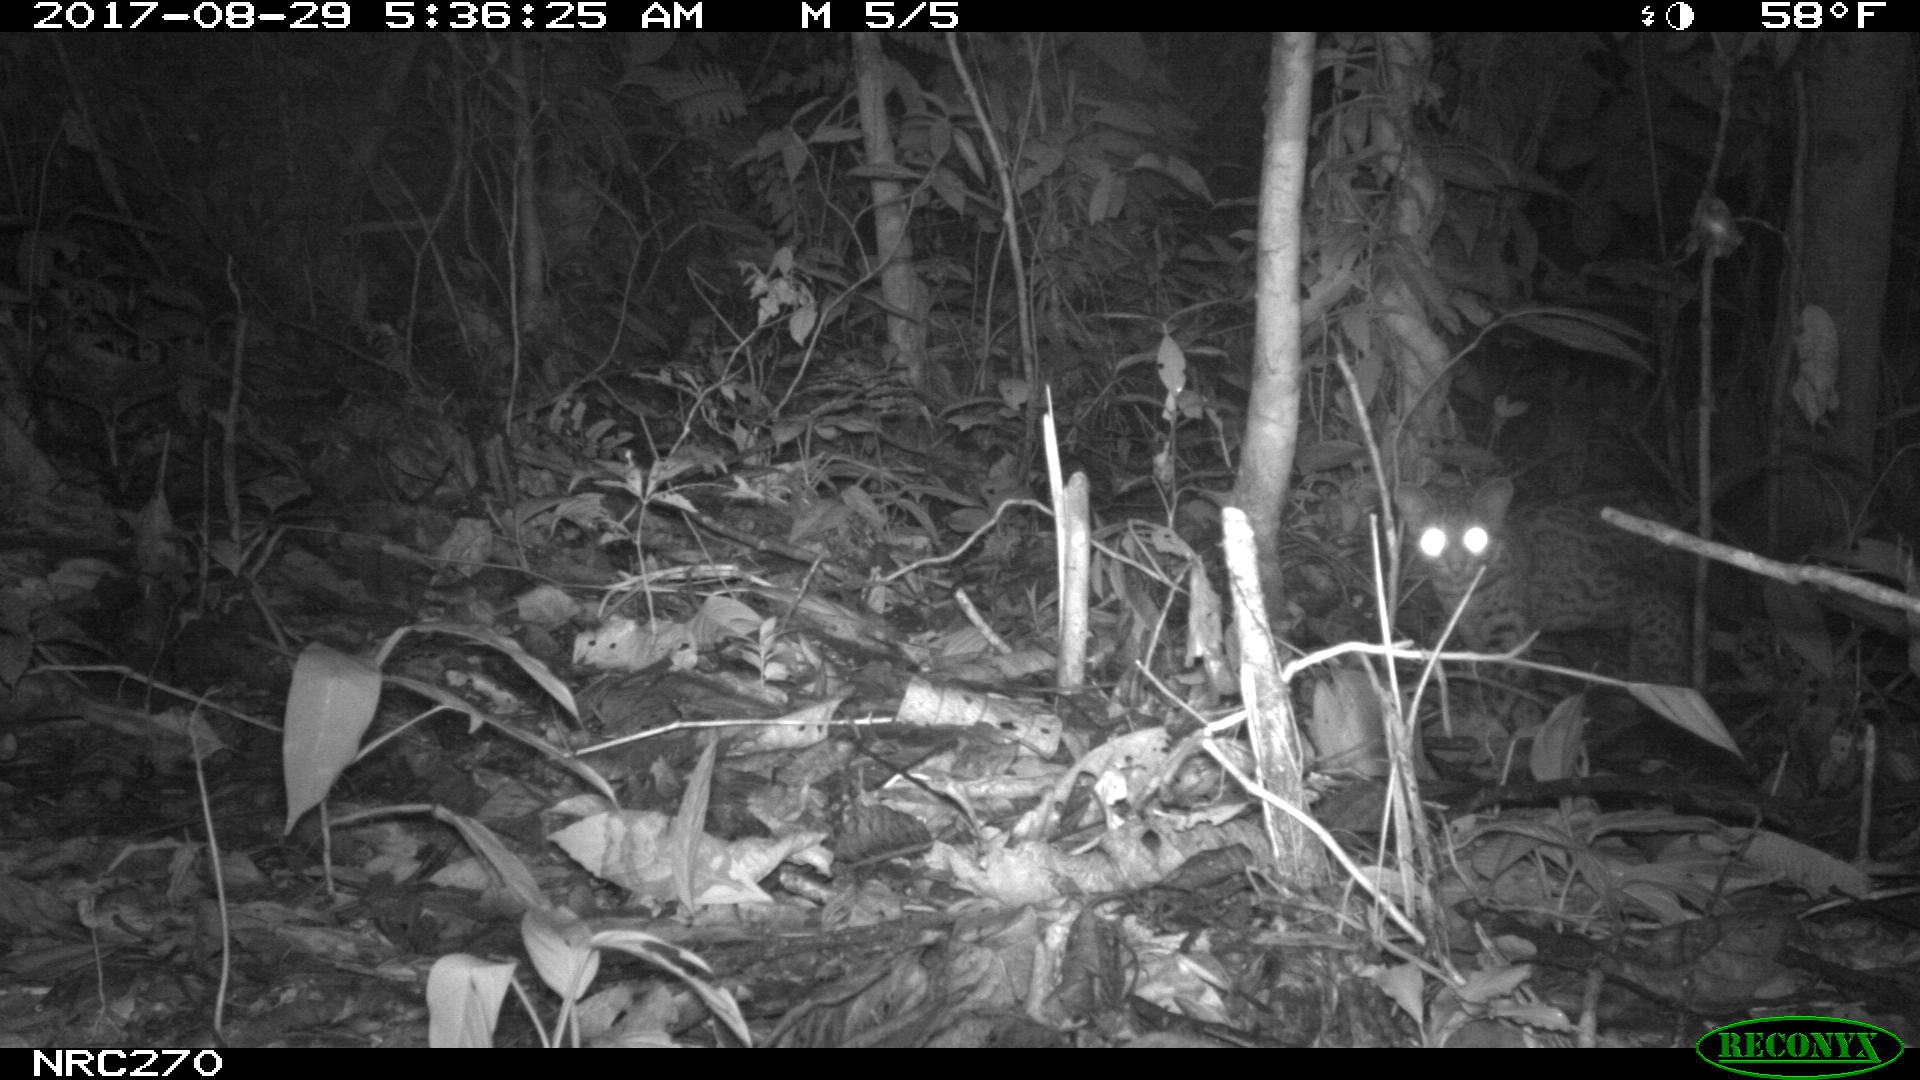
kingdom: Animalia
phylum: Chordata
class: Mammalia
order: Carnivora
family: Felidae
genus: Leopardus
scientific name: Leopardus tigrinus
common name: Oncilla
